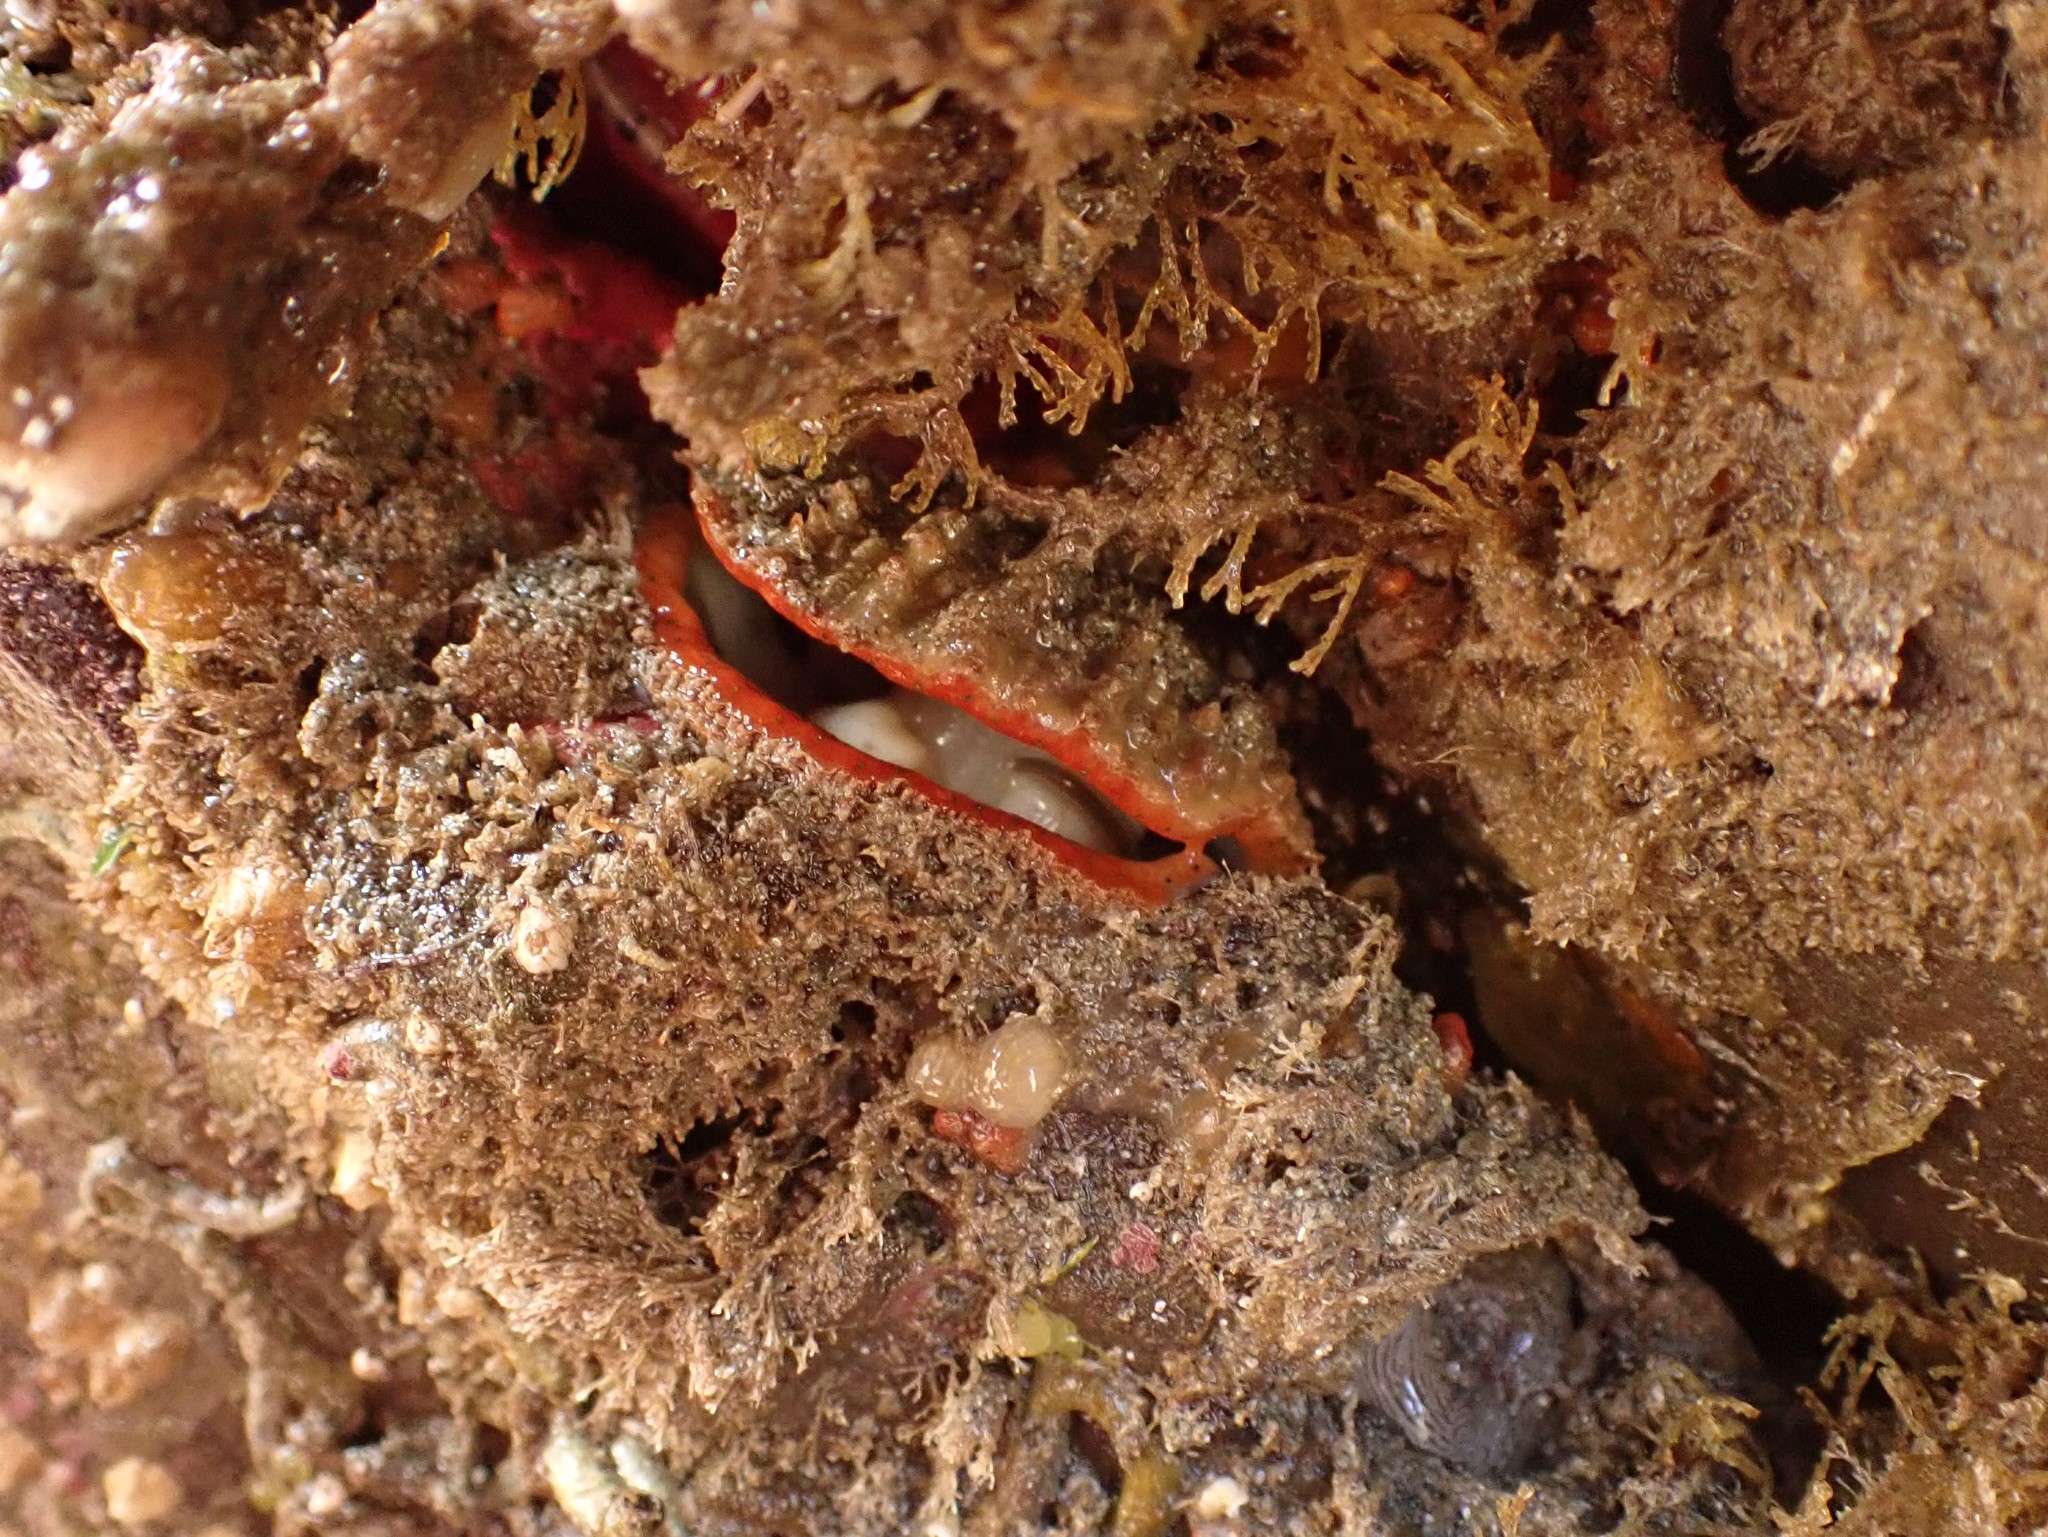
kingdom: Animalia
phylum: Mollusca
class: Bivalvia
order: Pectinida
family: Pectinidae
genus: Crassadoma
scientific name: Crassadoma gigantea
